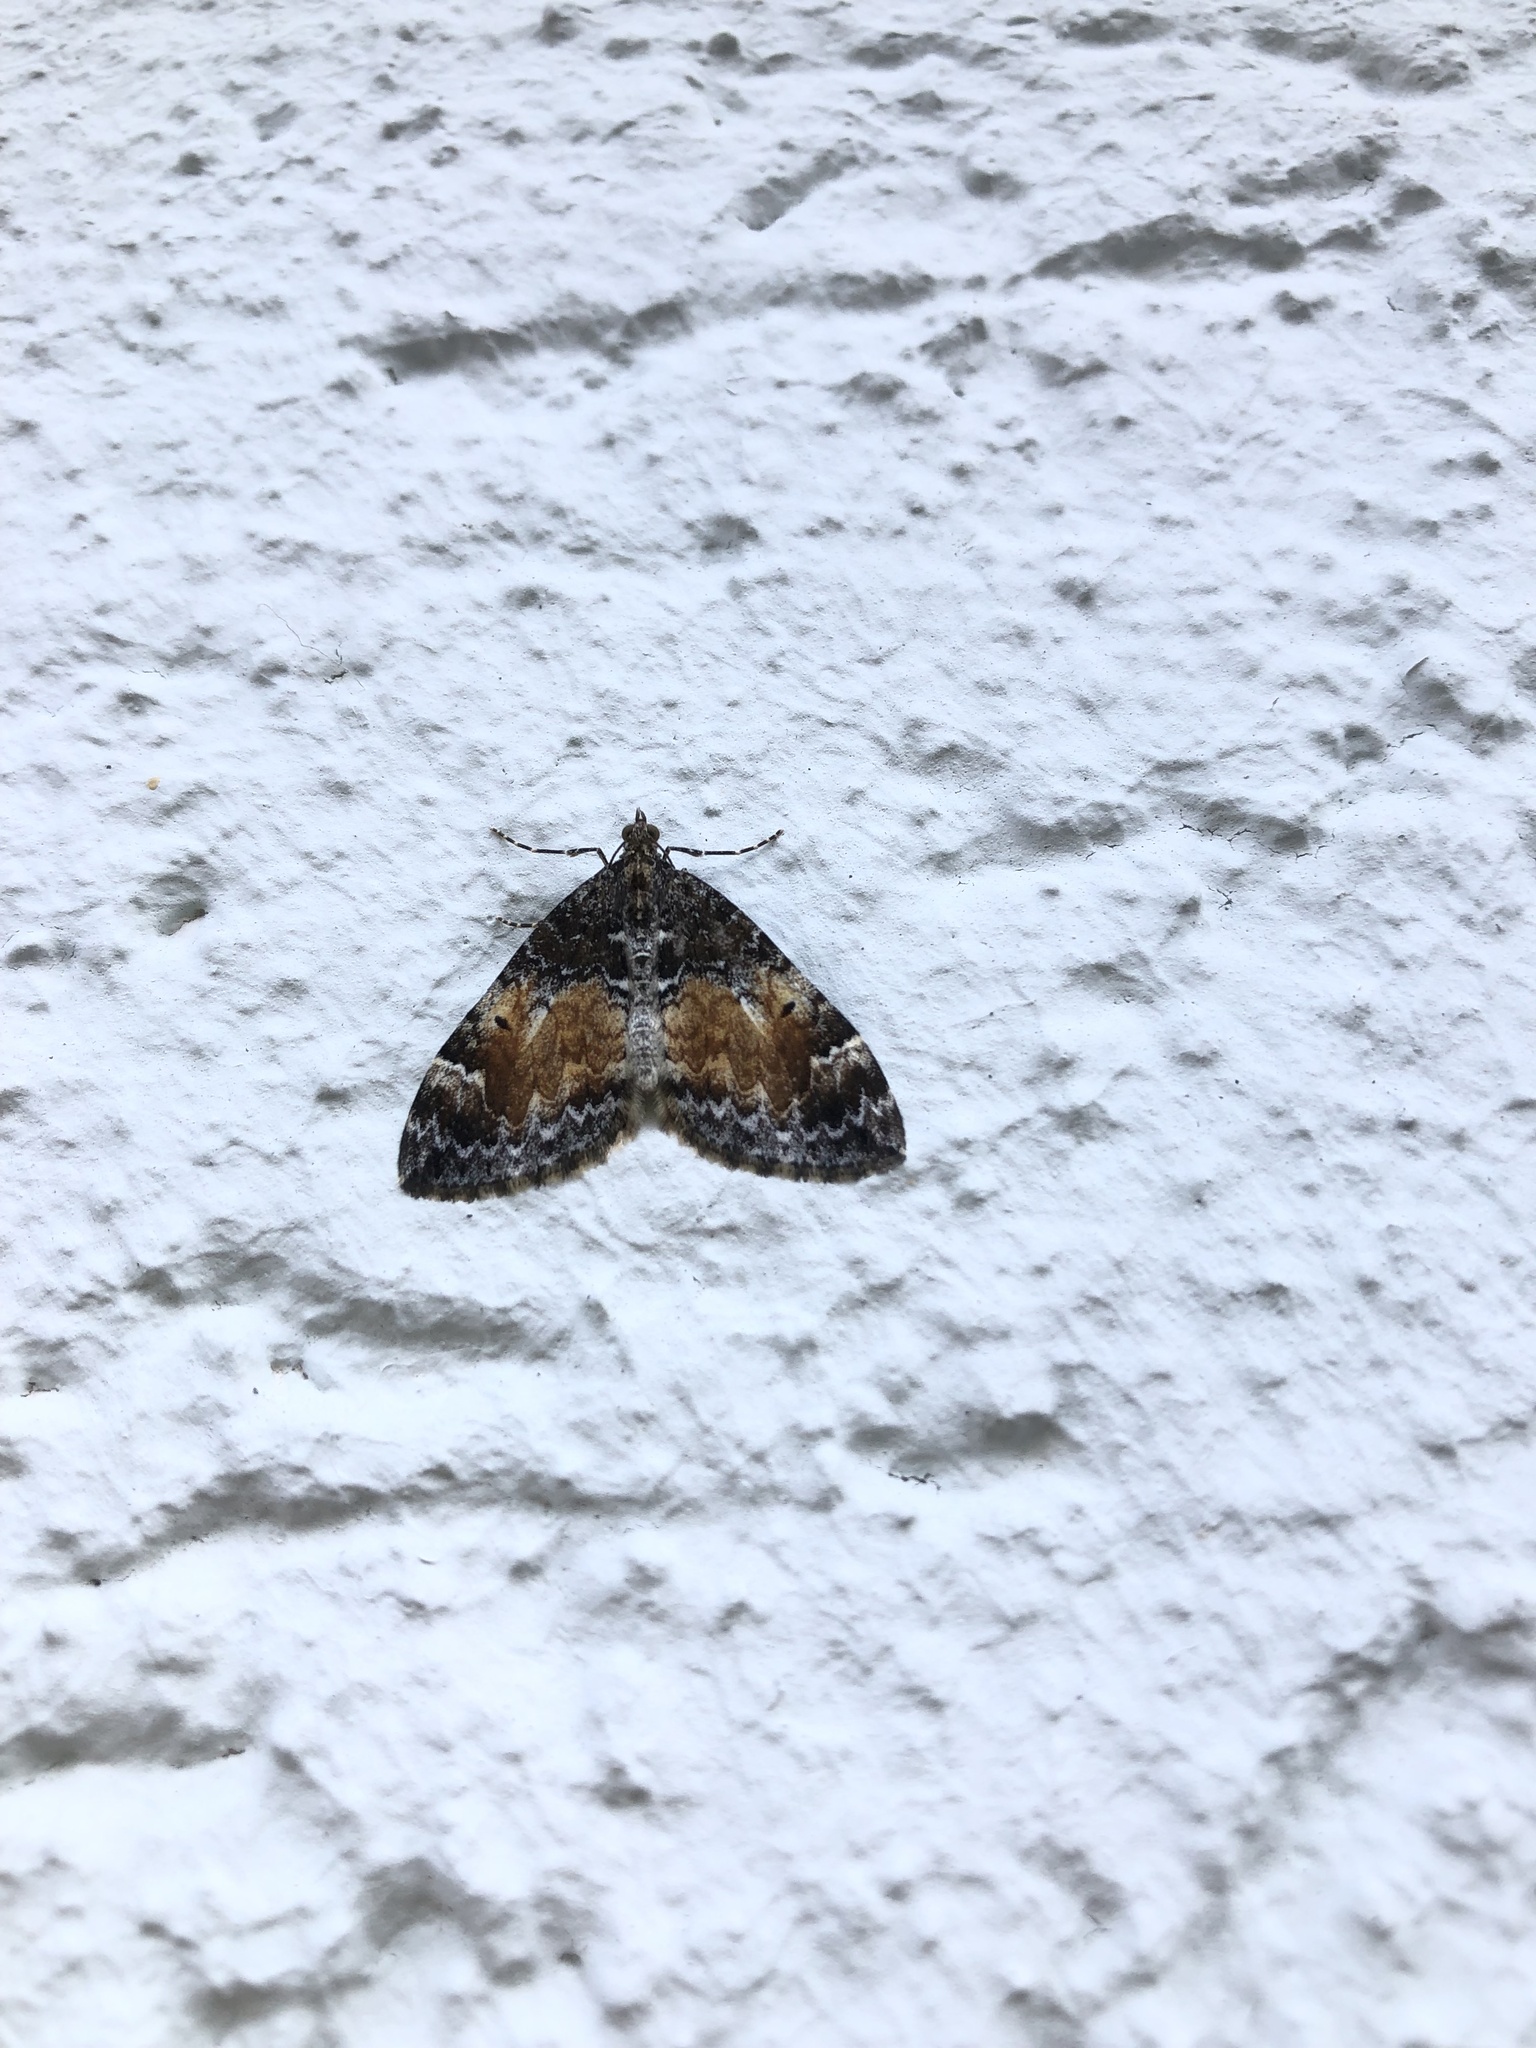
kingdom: Animalia
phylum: Arthropoda
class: Insecta
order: Lepidoptera
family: Geometridae
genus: Dysstroma
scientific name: Dysstroma truncata
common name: Common marbled carpet
